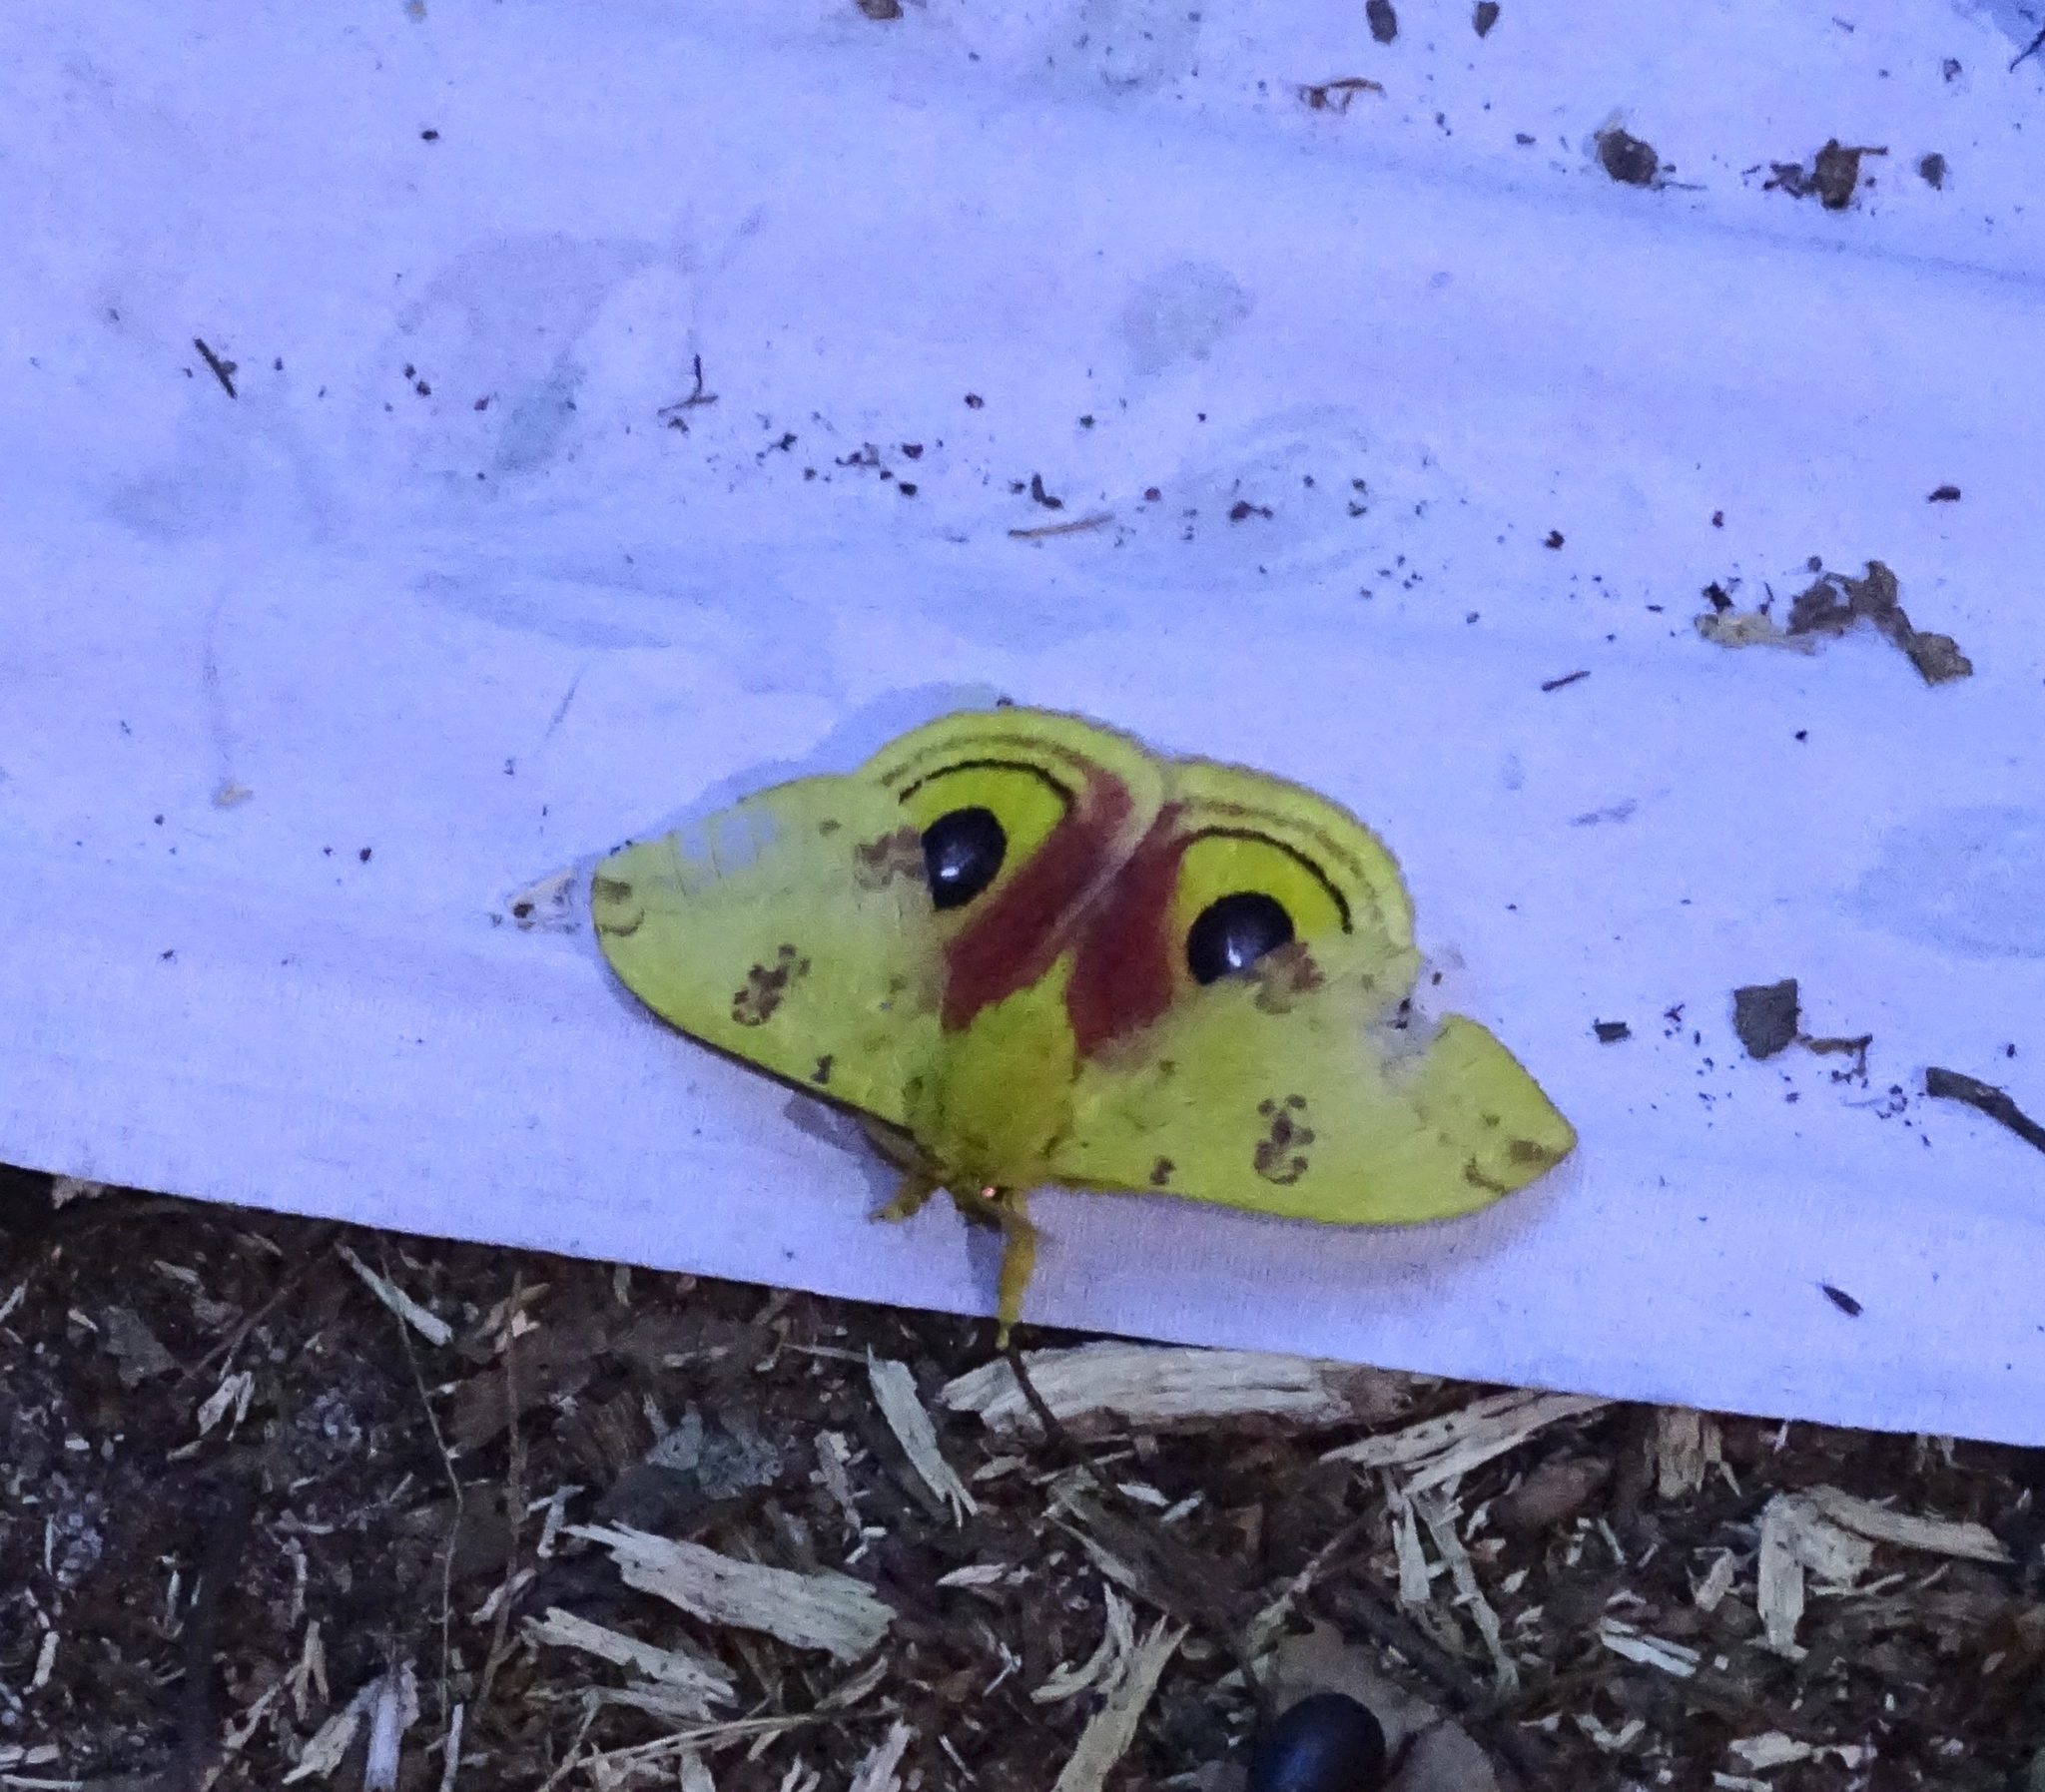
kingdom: Animalia
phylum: Arthropoda
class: Insecta
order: Lepidoptera
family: Saturniidae
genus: Automeris
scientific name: Automeris io
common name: Io moth
